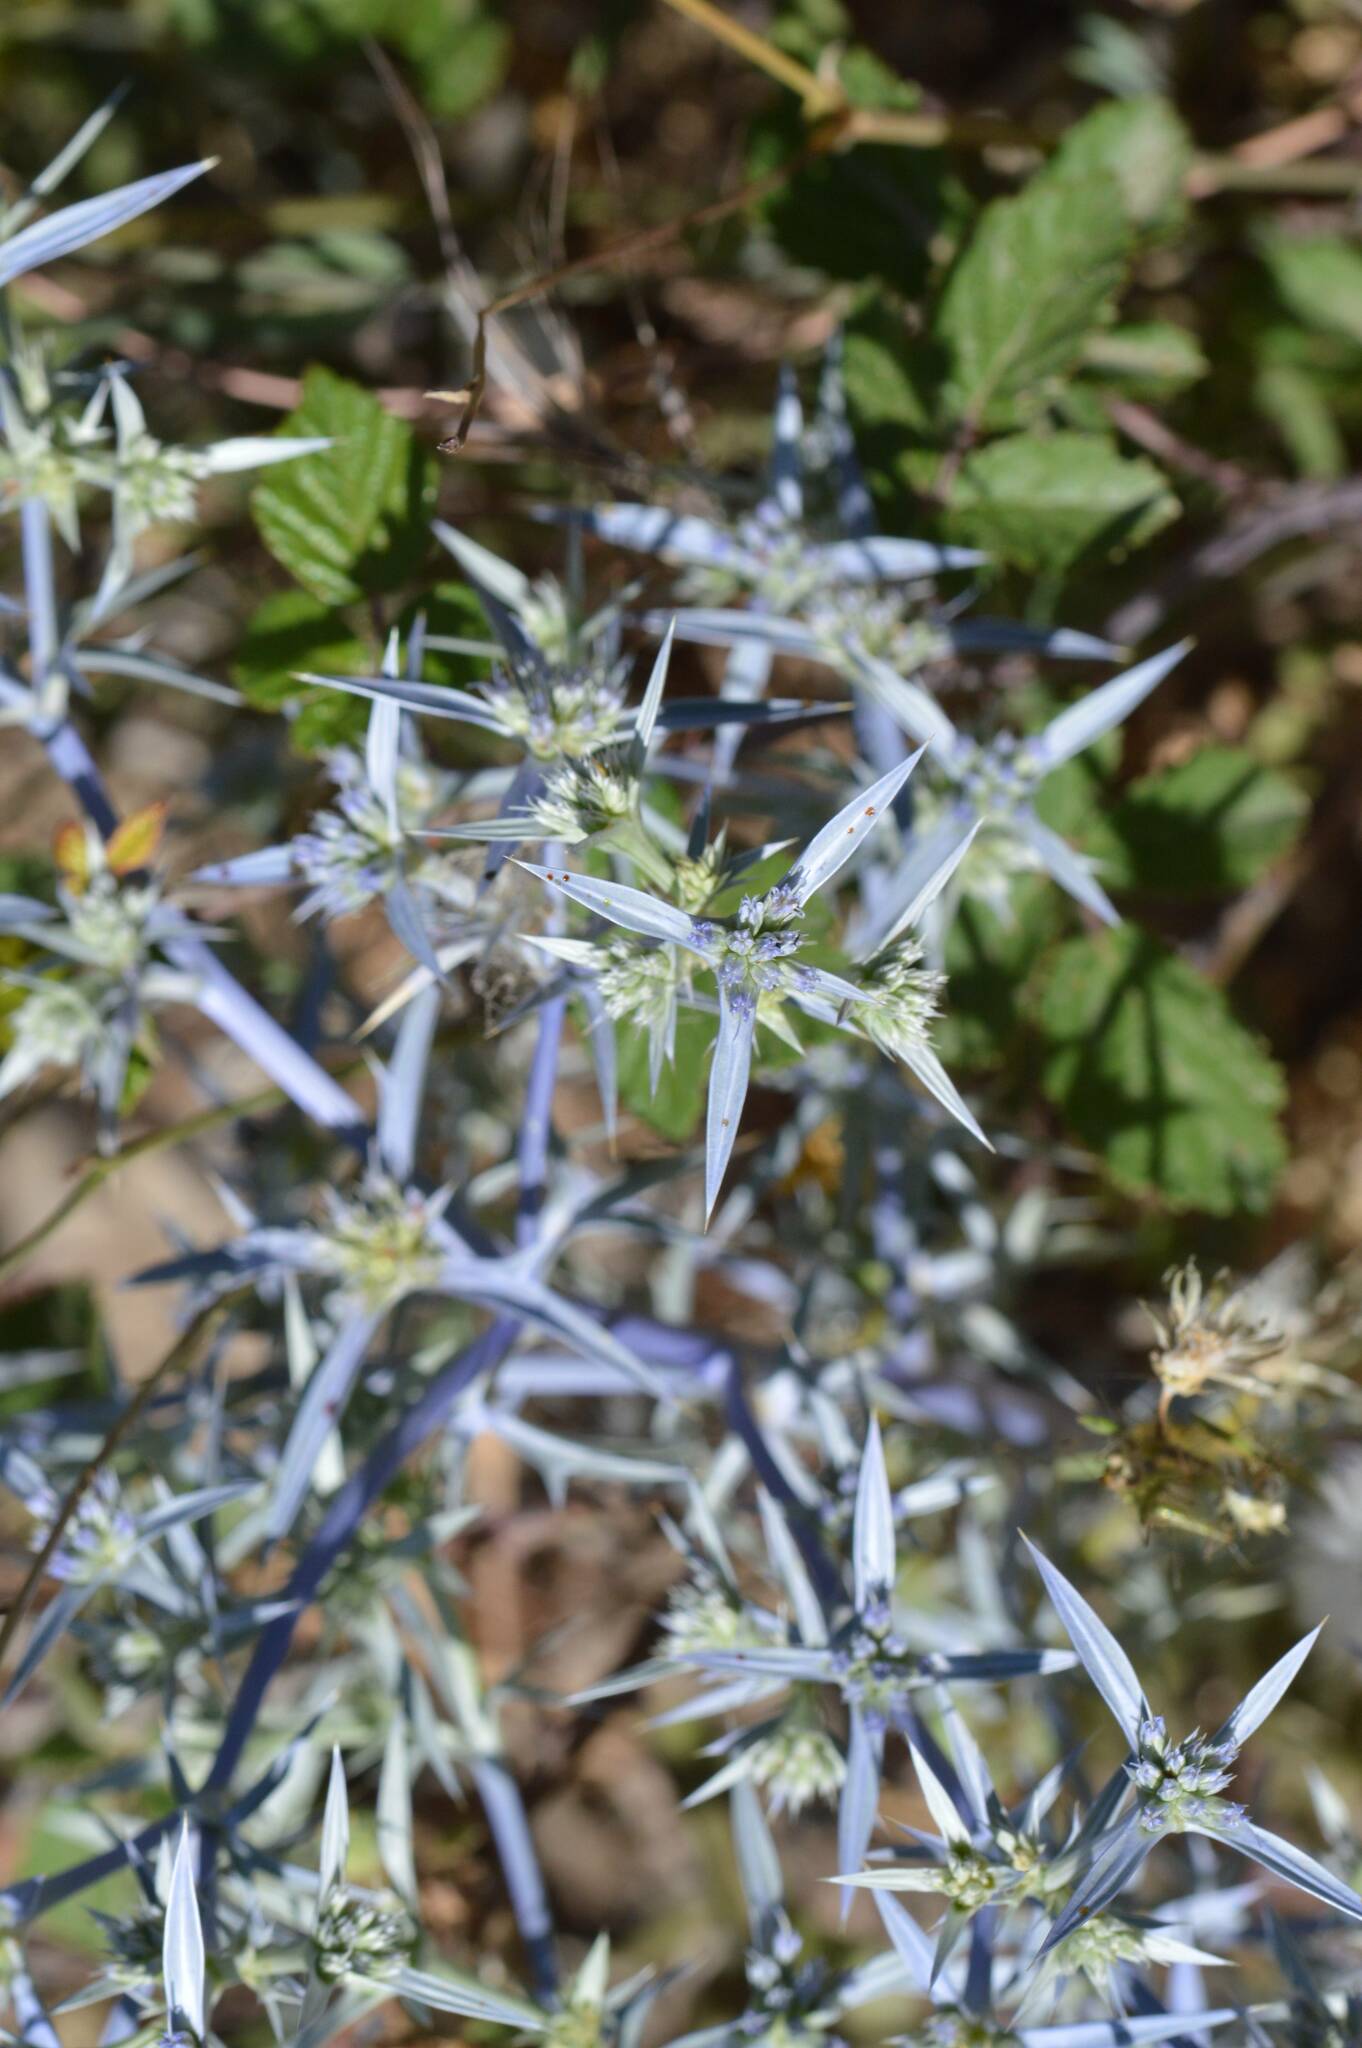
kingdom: Plantae
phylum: Tracheophyta
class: Magnoliopsida
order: Apiales
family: Apiaceae
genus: Eryngium
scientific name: Eryngium triquetrum
